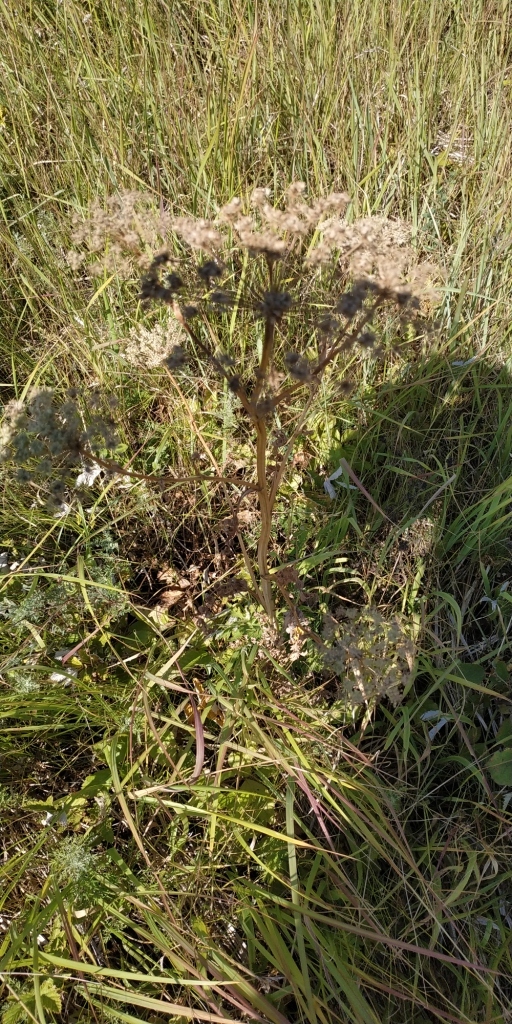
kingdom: Plantae
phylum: Tracheophyta
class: Magnoliopsida
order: Apiales
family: Apiaceae
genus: Seseli
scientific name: Seseli libanotis
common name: Mooncarrot
